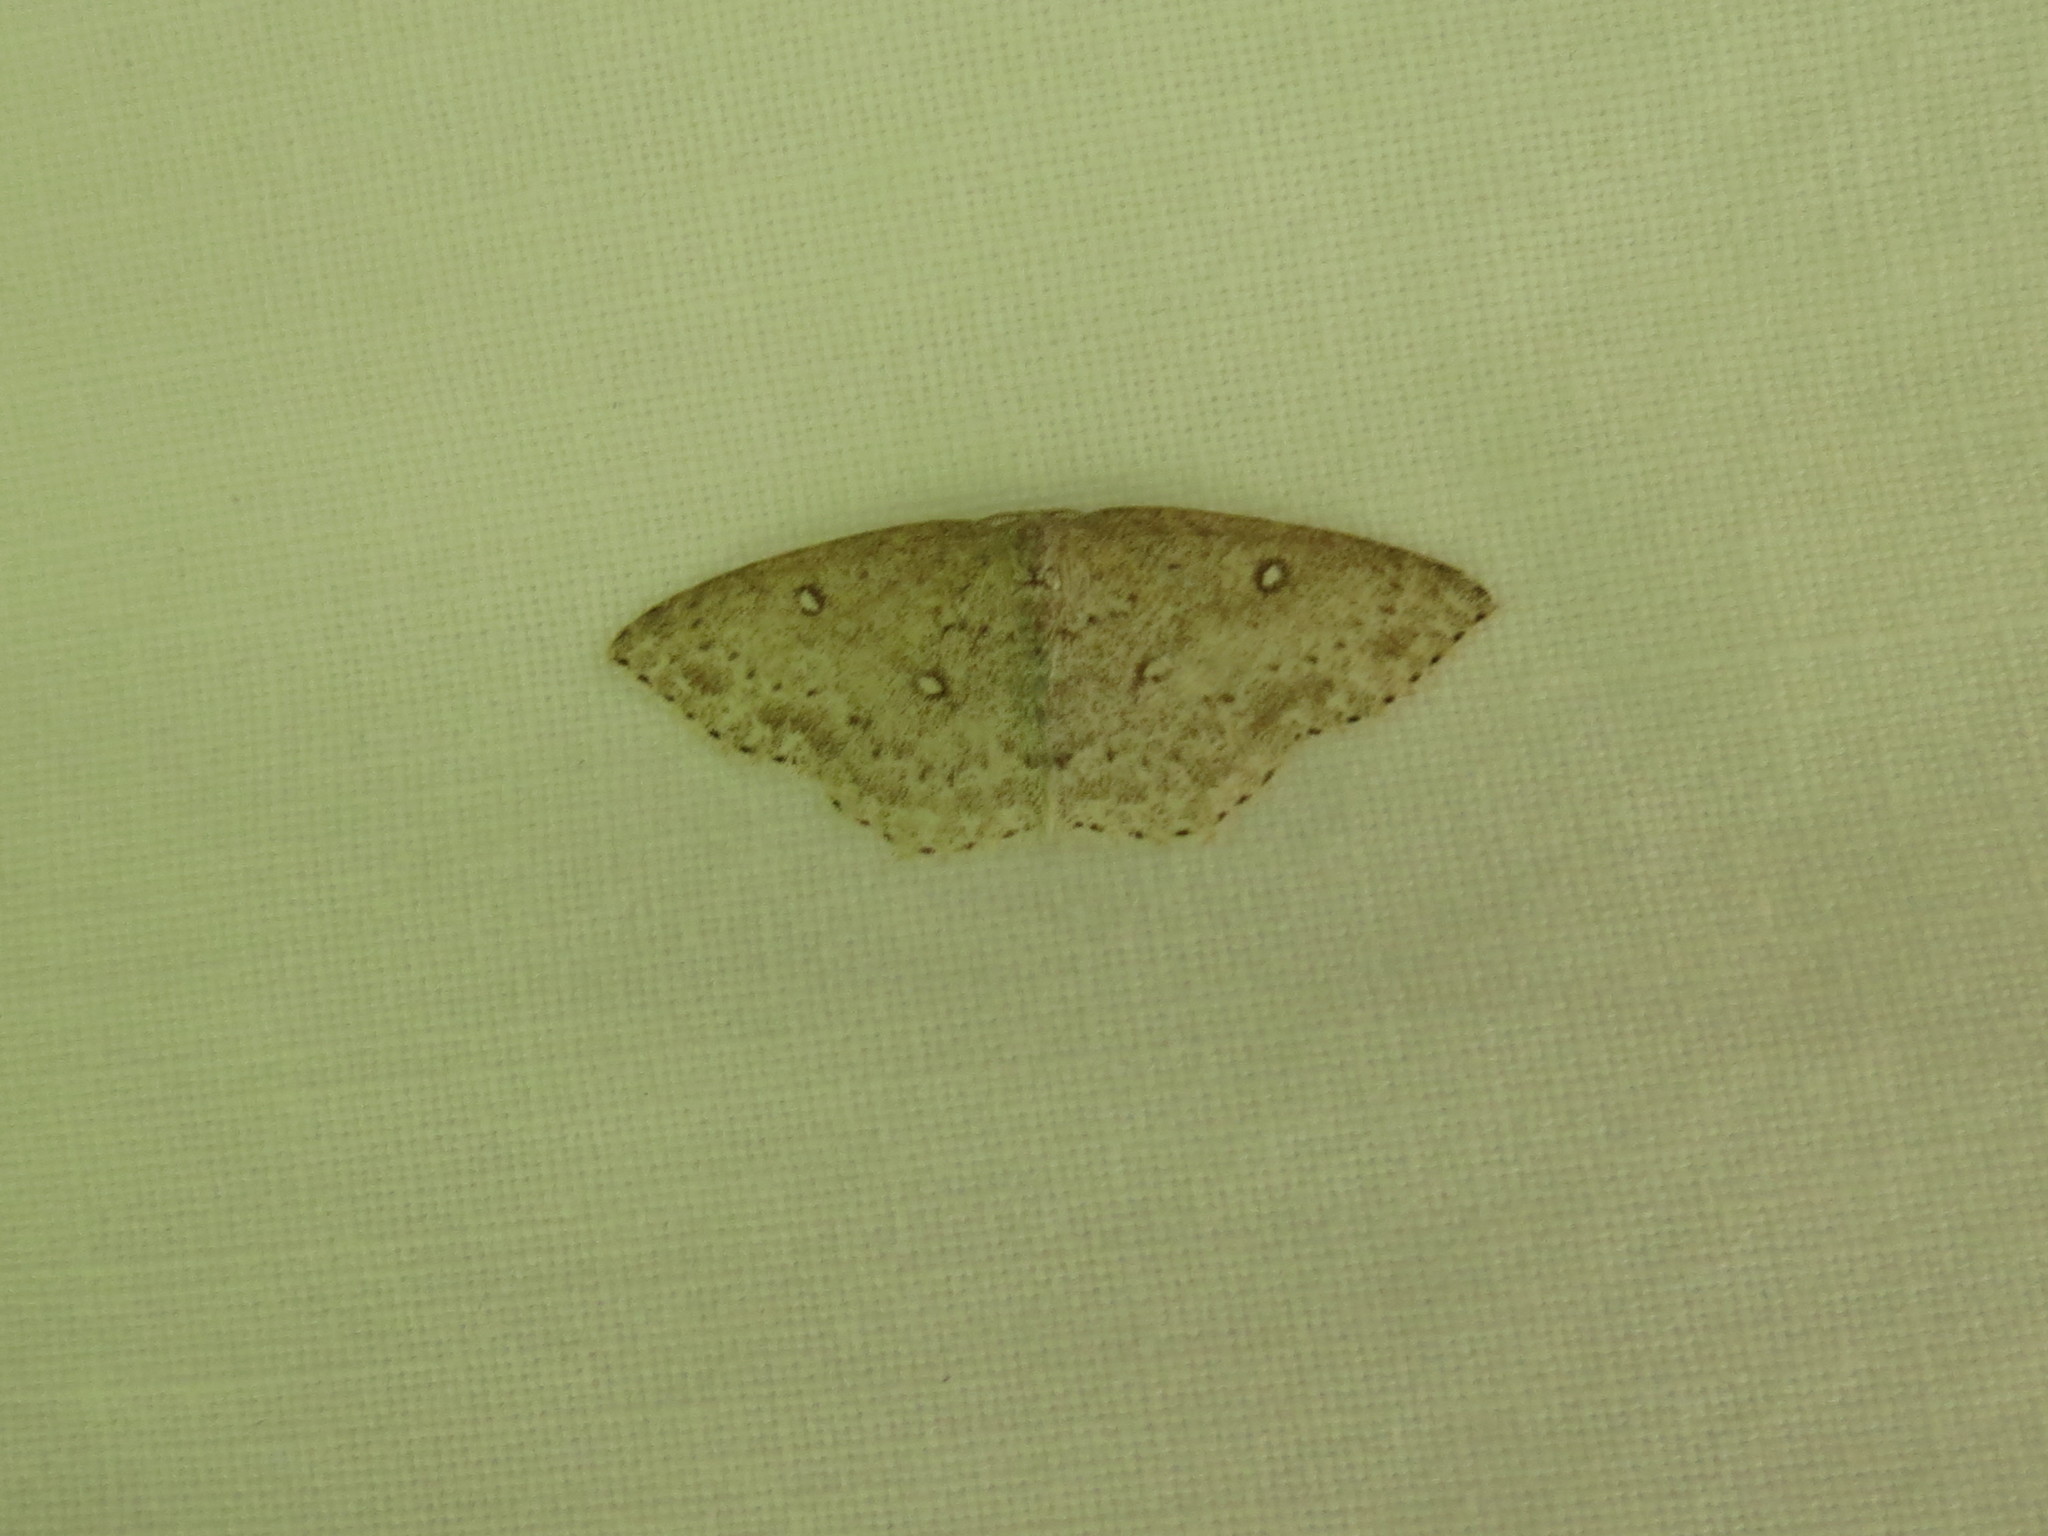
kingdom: Animalia
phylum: Arthropoda
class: Insecta
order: Lepidoptera
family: Geometridae
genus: Cyclophora
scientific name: Cyclophora pendulinaria
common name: Sweet fern geometer
